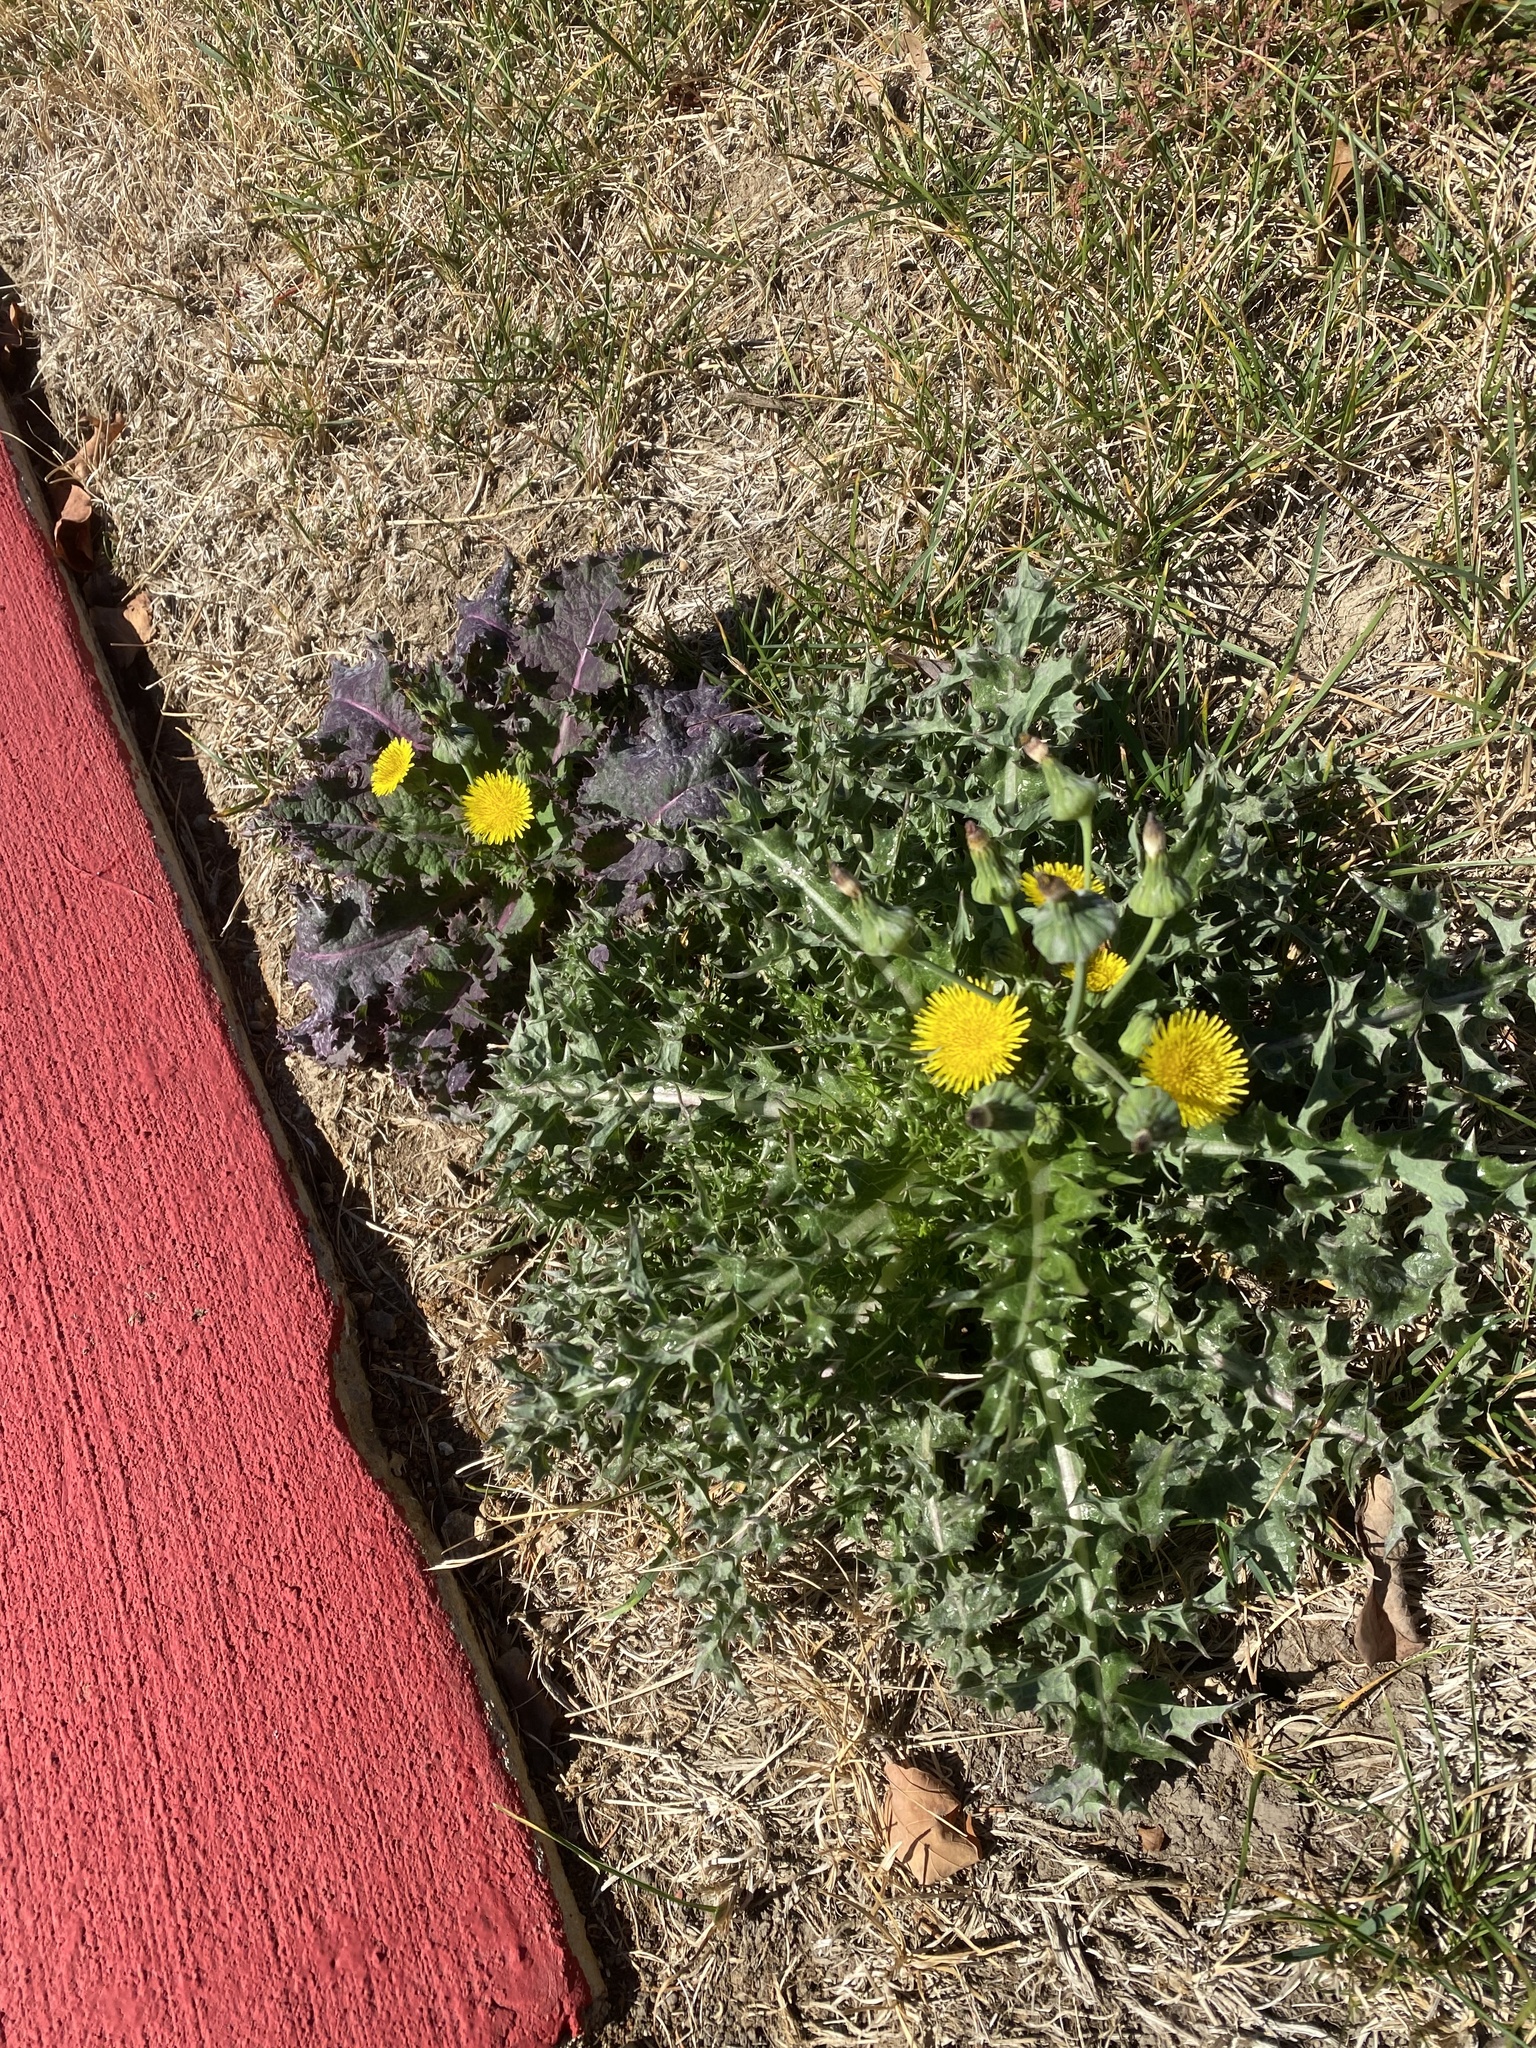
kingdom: Plantae
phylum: Tracheophyta
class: Magnoliopsida
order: Asterales
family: Asteraceae
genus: Sonchus
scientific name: Sonchus asper
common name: Prickly sow-thistle
